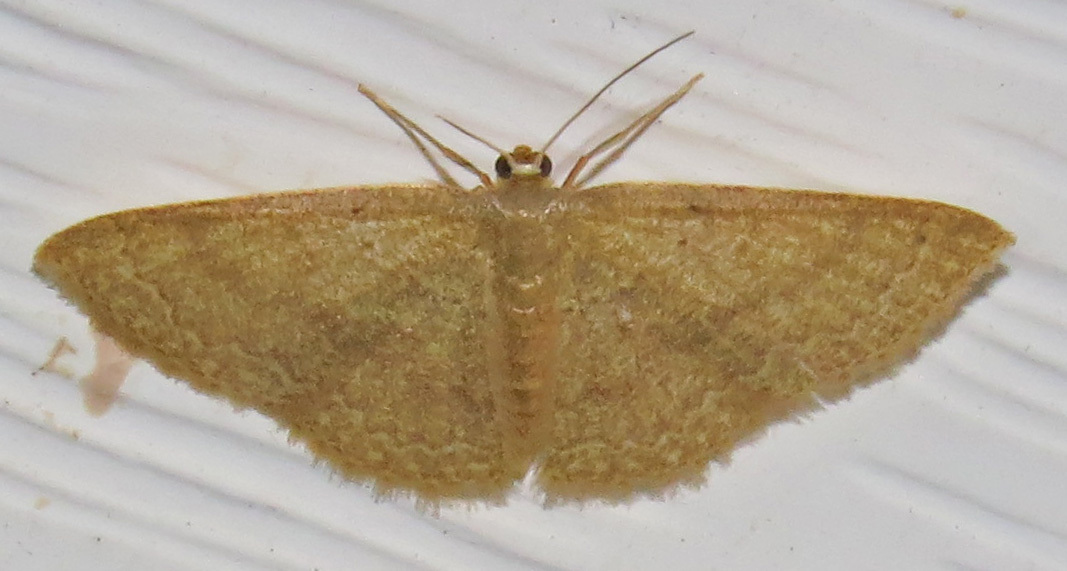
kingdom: Animalia
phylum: Arthropoda
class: Insecta
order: Lepidoptera
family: Geometridae
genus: Pleuroprucha
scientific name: Pleuroprucha insulsaria
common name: Common tan wave
